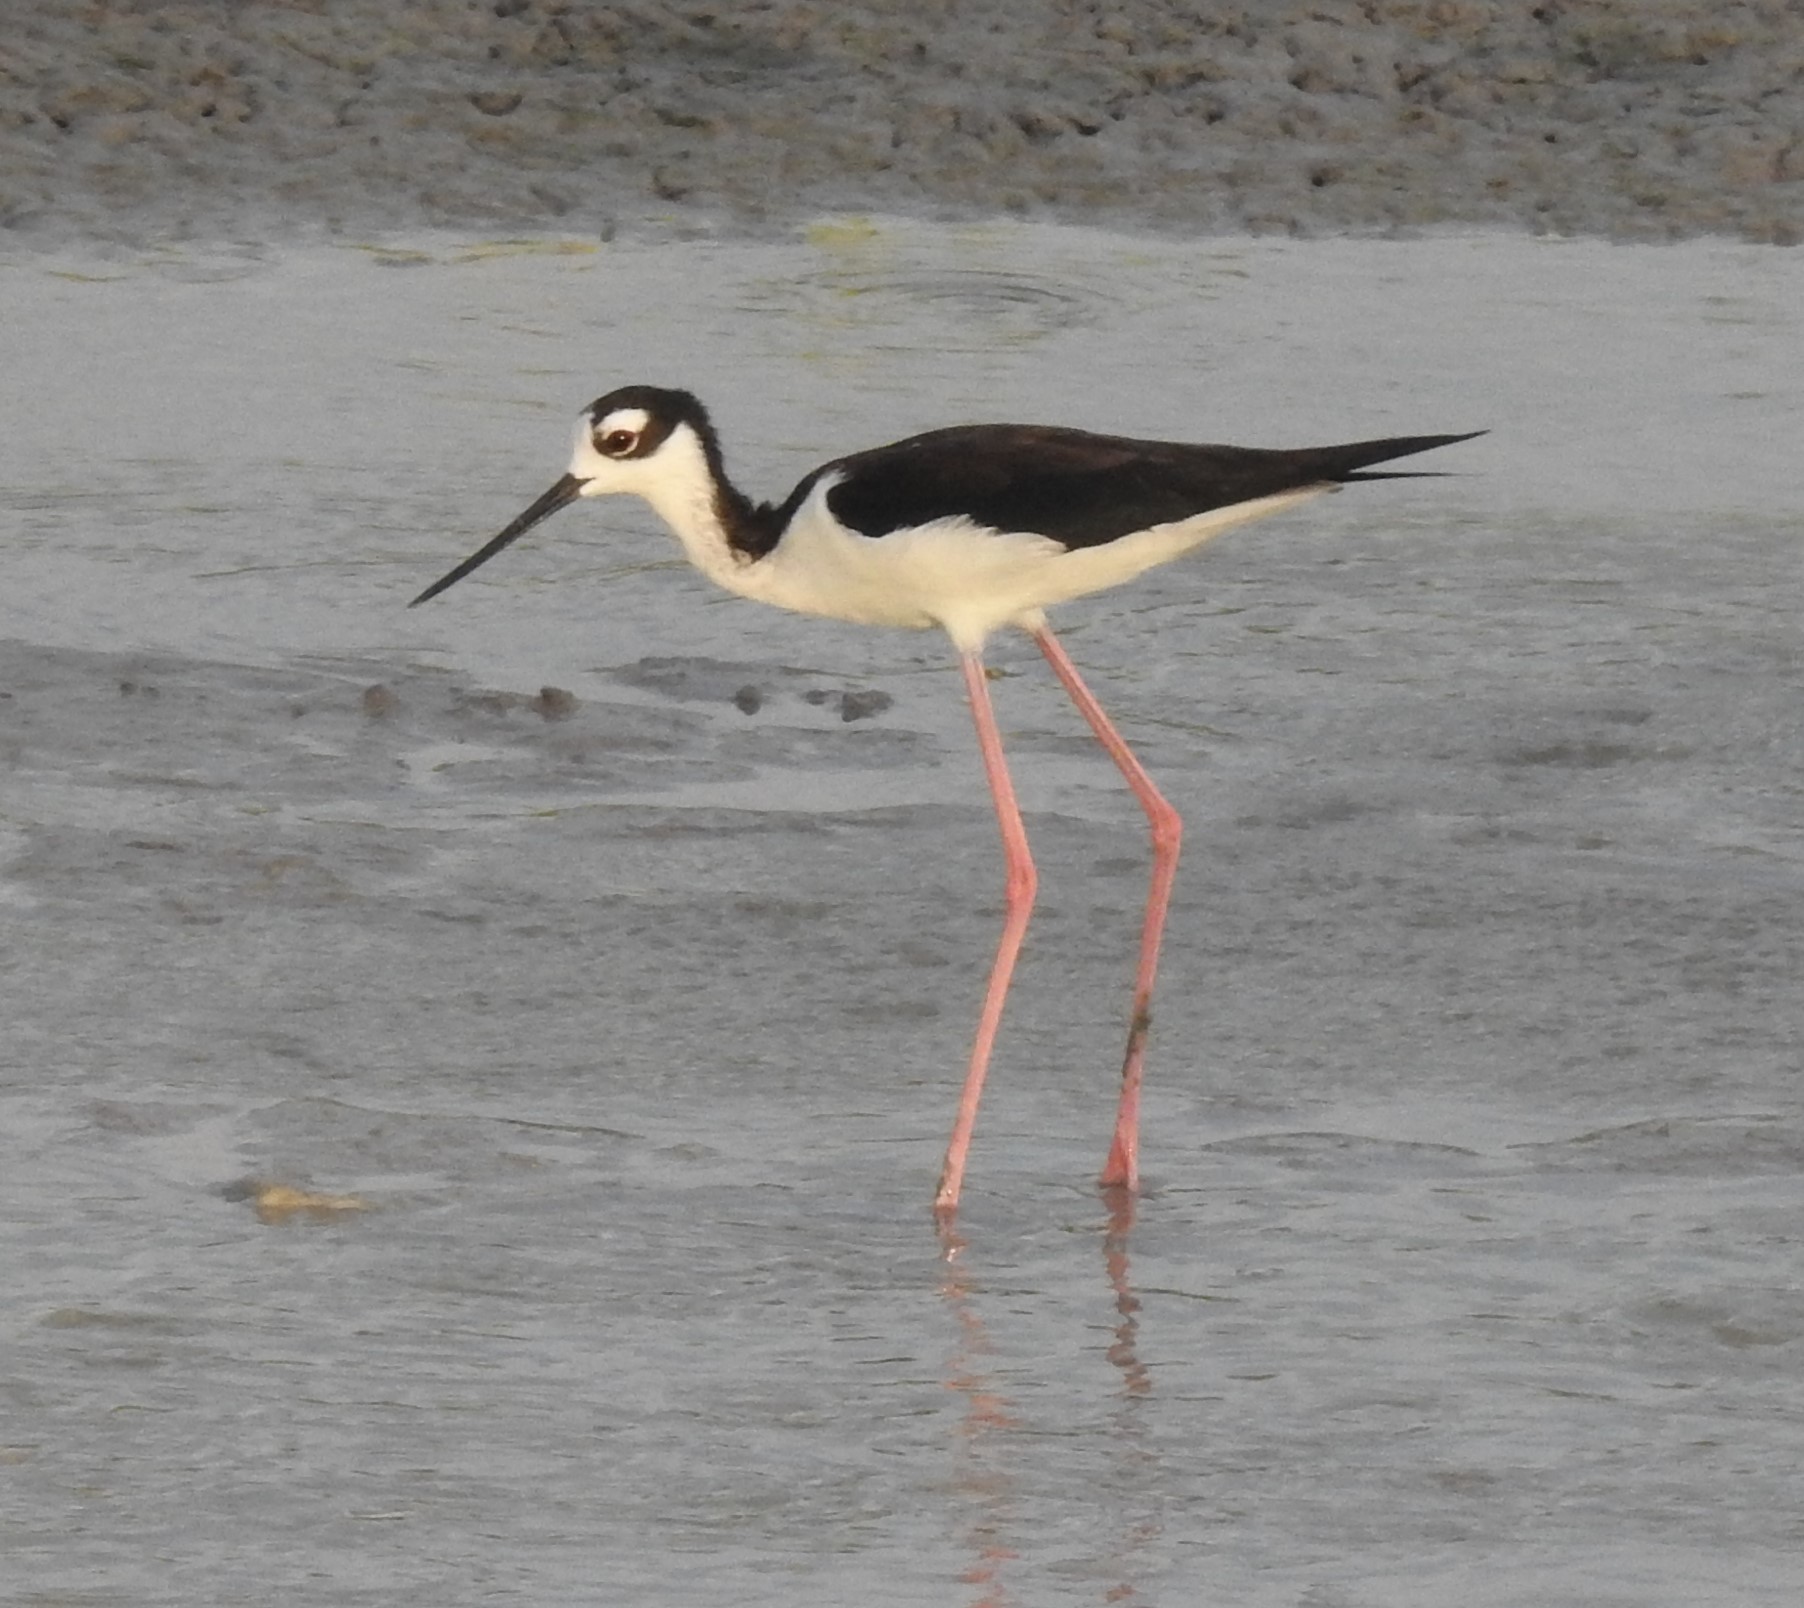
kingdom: Animalia
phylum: Chordata
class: Aves
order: Charadriiformes
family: Recurvirostridae
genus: Himantopus
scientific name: Himantopus mexicanus
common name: Black-necked stilt
